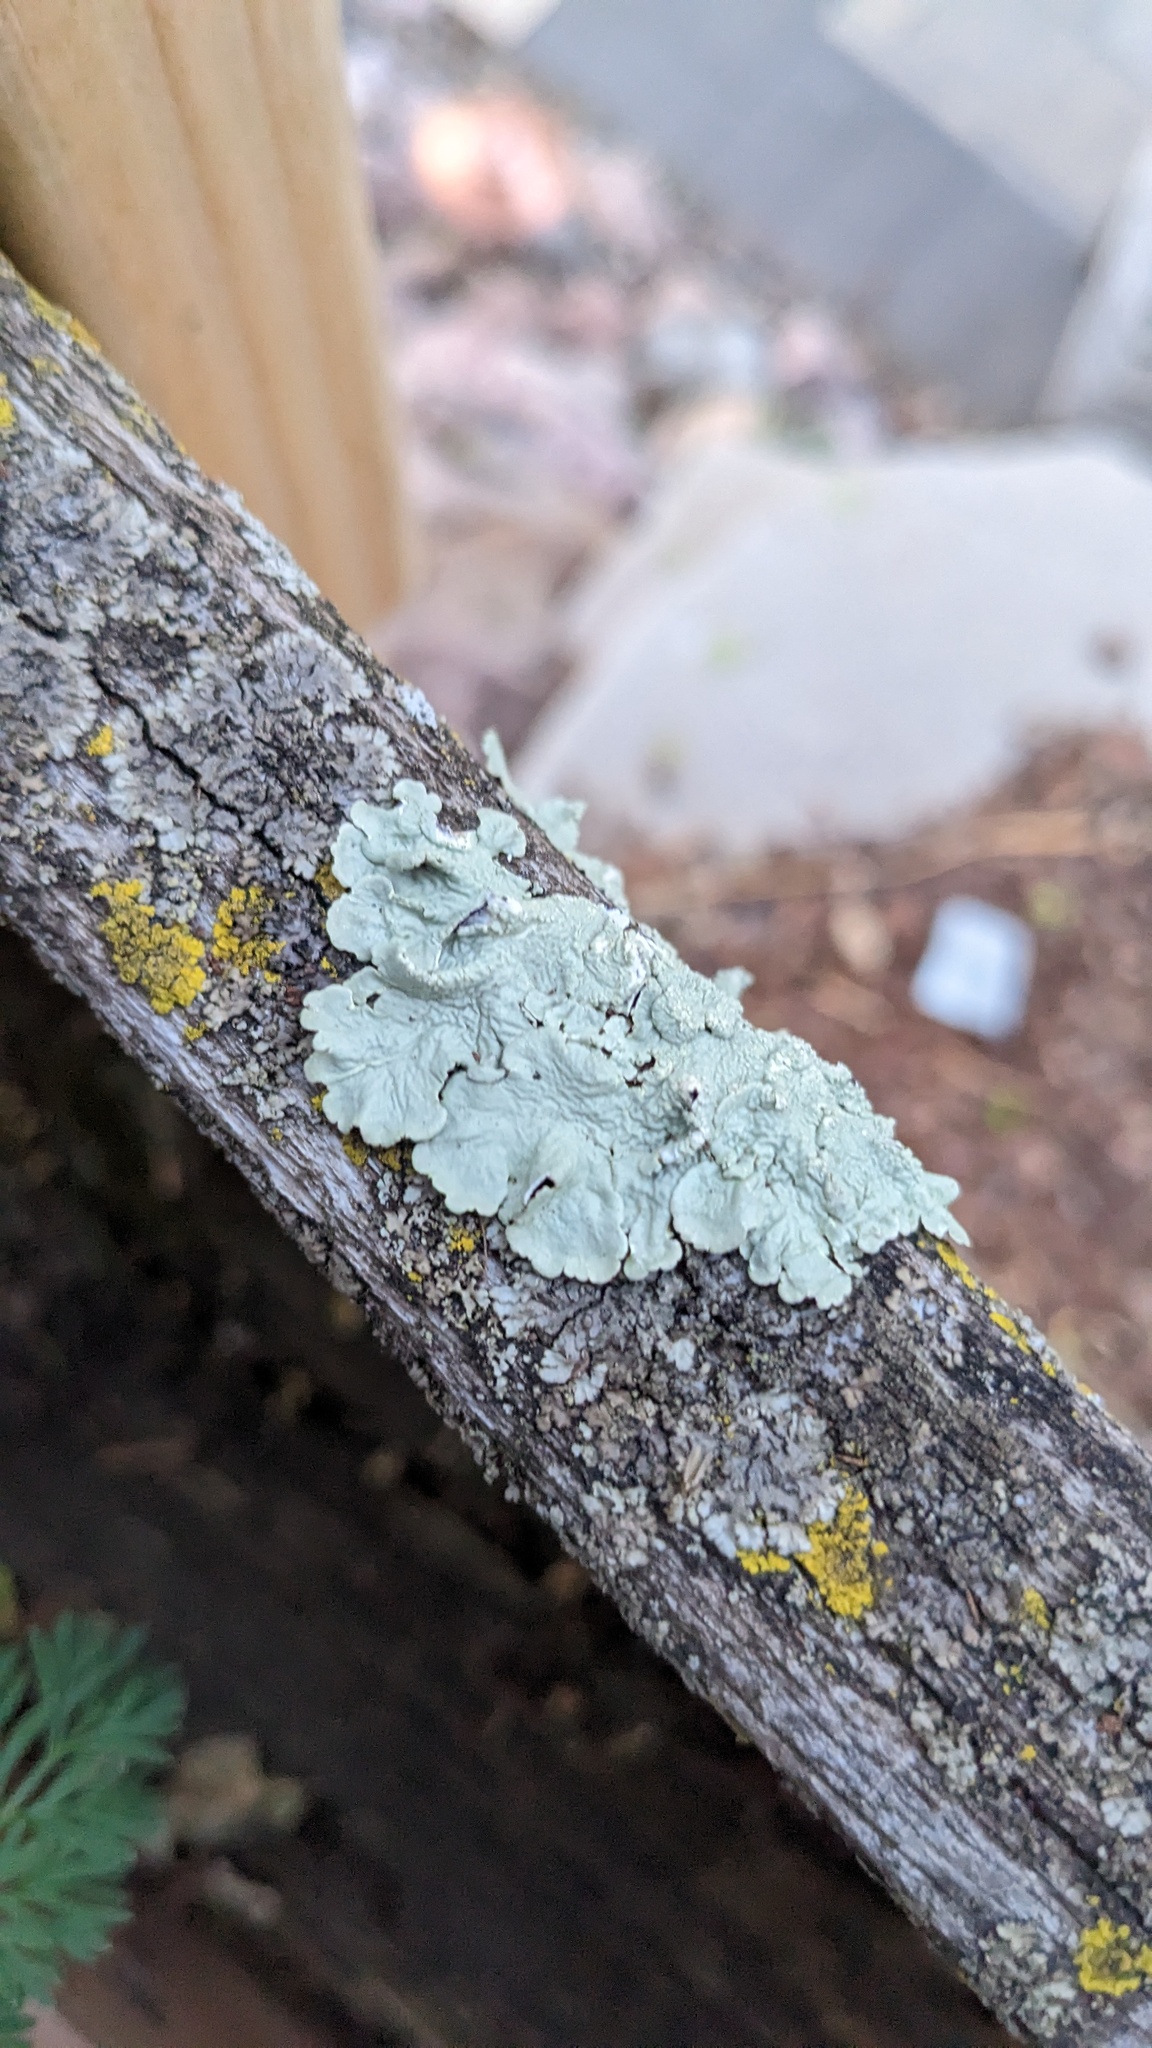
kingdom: Fungi
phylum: Ascomycota
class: Lecanoromycetes
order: Lecanorales
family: Parmeliaceae
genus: Flavoparmelia
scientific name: Flavoparmelia caperata
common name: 40-mile per hour lichen
